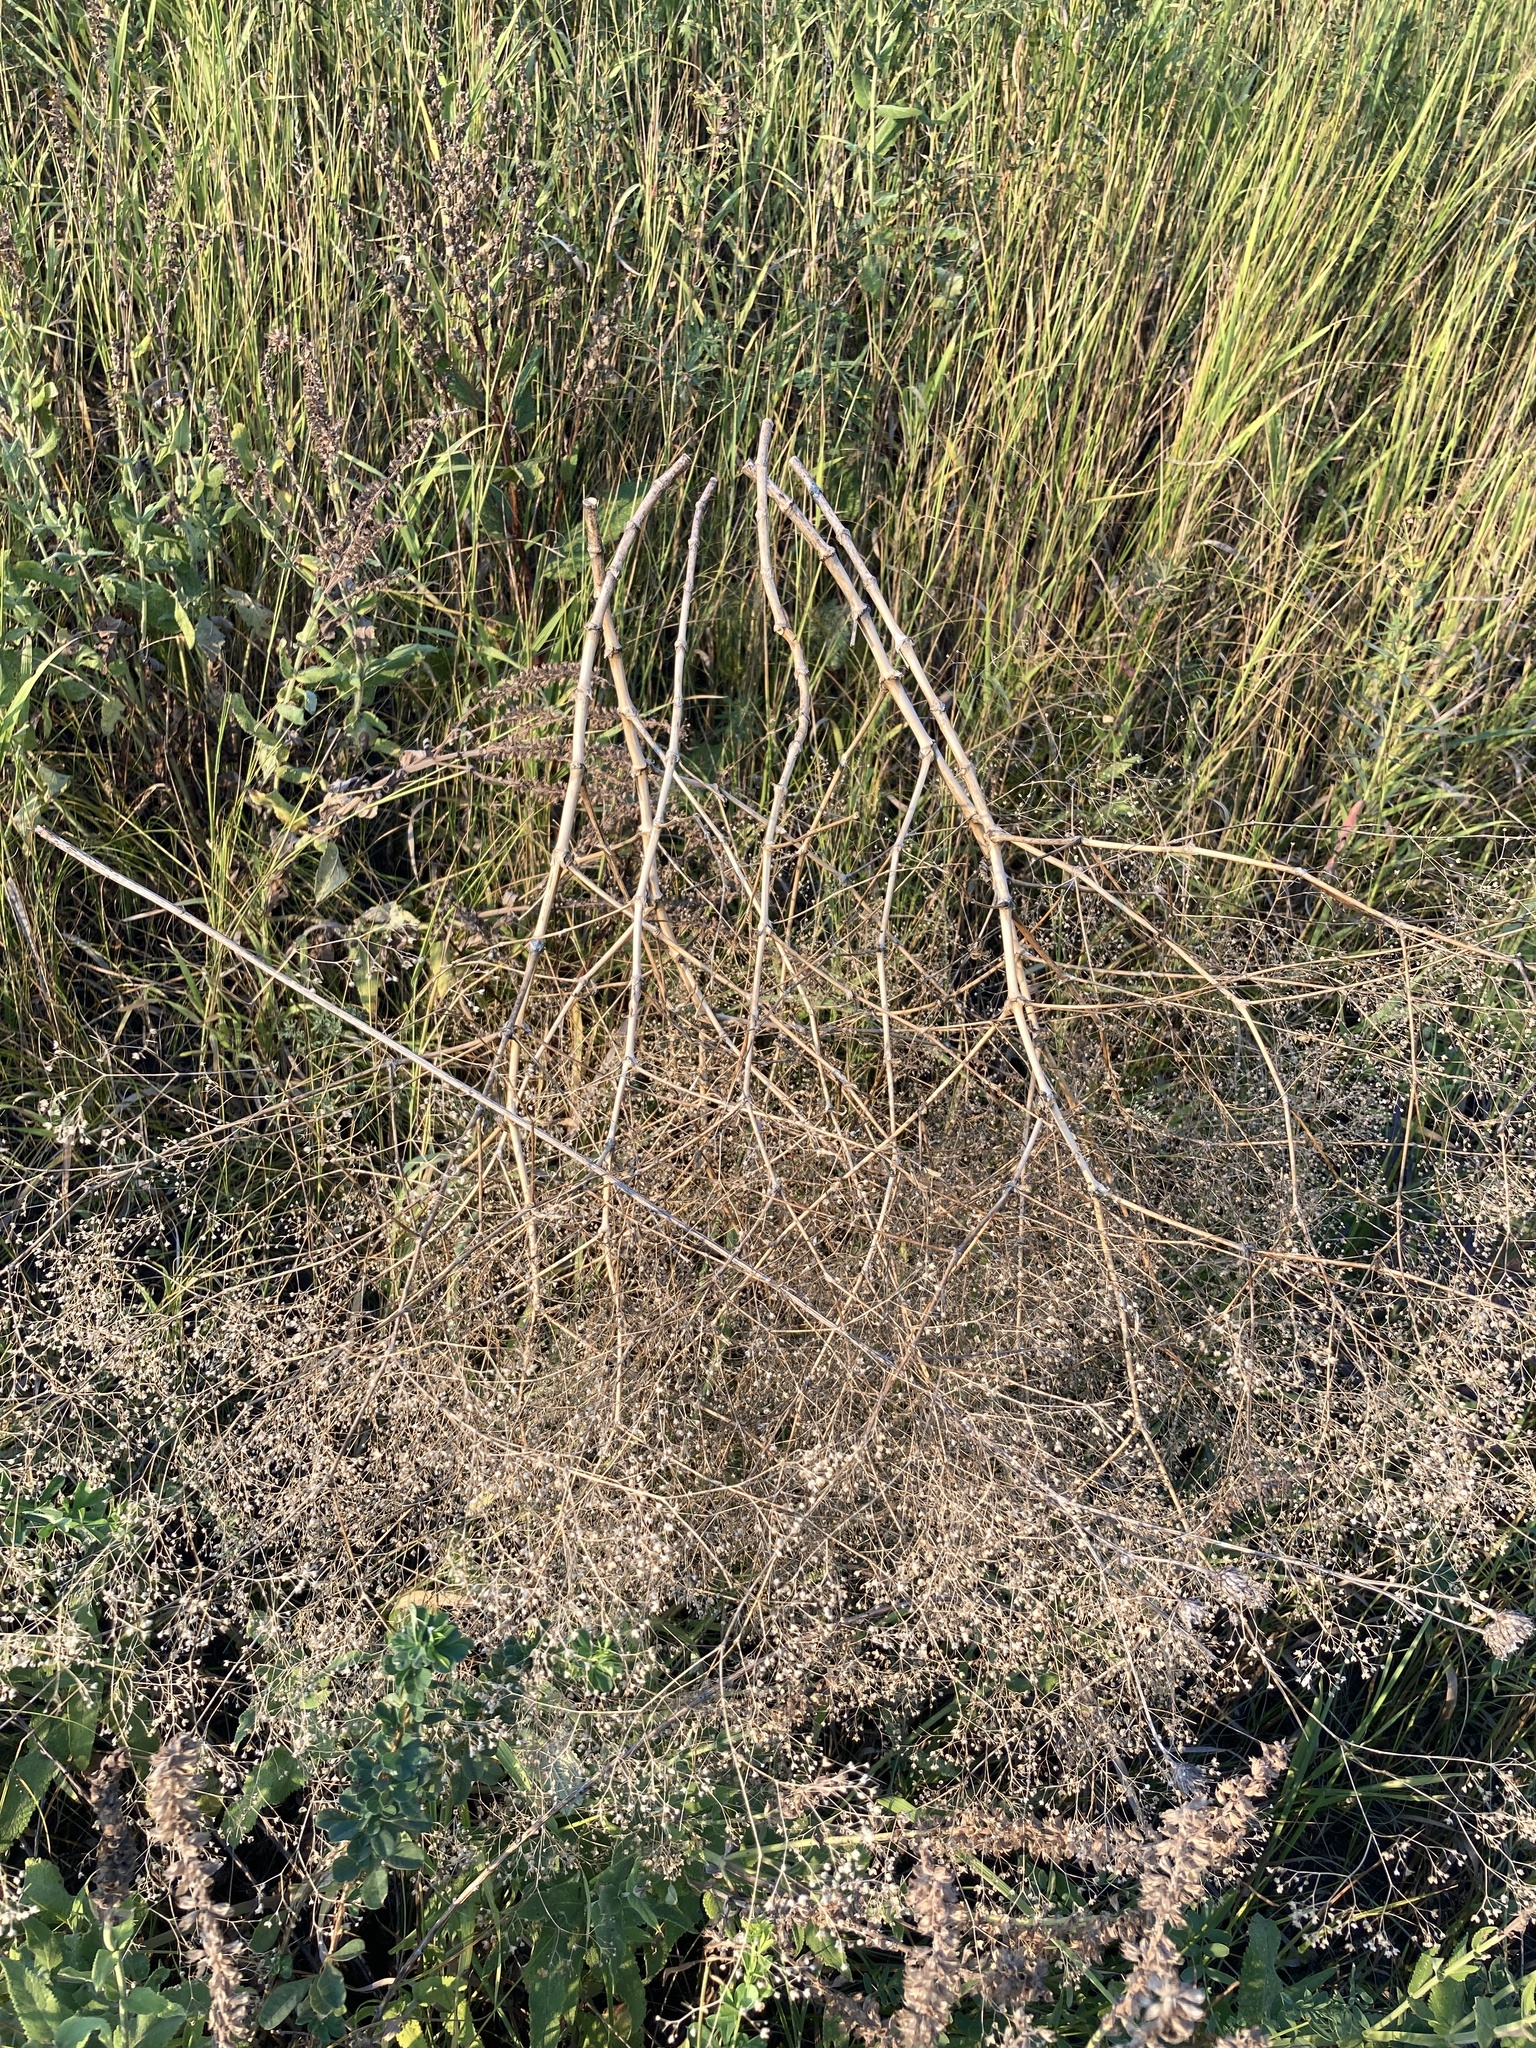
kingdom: Plantae
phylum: Tracheophyta
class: Magnoliopsida
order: Caryophyllales
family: Caryophyllaceae
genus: Gypsophila
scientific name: Gypsophila paniculata
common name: Baby's-breath
